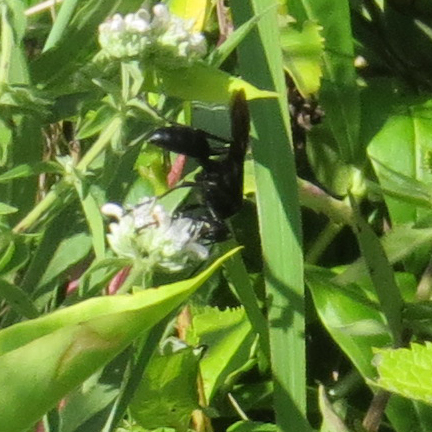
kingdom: Animalia
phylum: Arthropoda
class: Insecta
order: Hymenoptera
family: Sphecidae
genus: Sphex
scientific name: Sphex pensylvanicus
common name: Great black digger wasp
